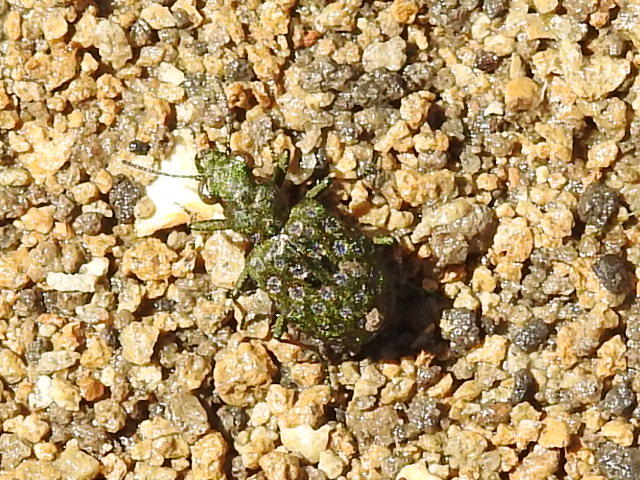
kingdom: Animalia
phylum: Arthropoda
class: Insecta
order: Coleoptera
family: Carabidae
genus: Elaphrus
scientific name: Elaphrus ruscarius
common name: Shore ground beetle
